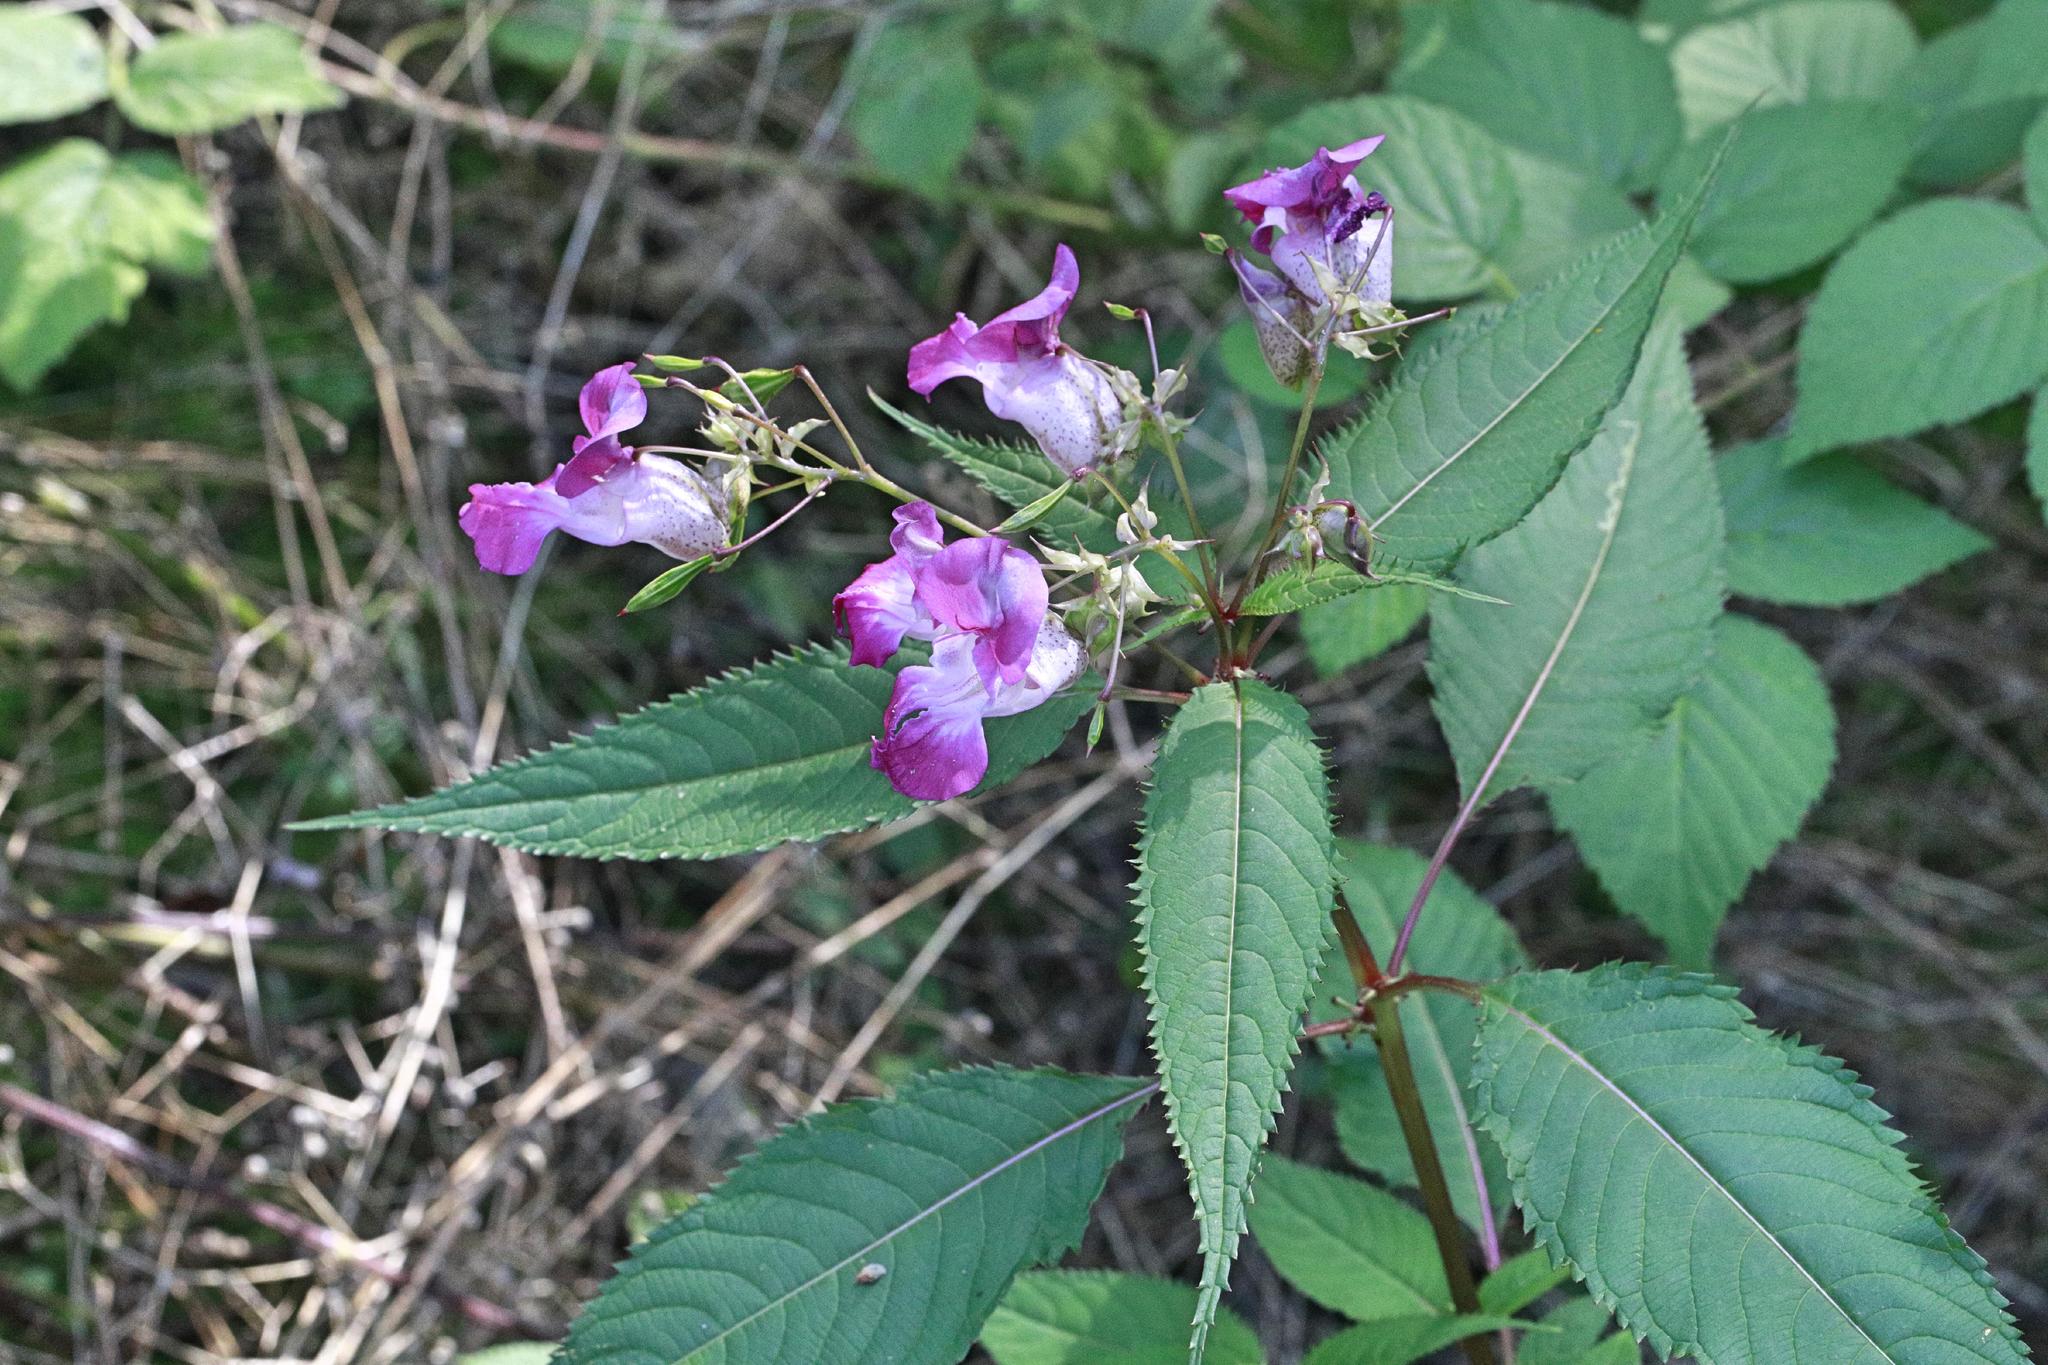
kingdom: Plantae
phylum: Tracheophyta
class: Magnoliopsida
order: Ericales
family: Balsaminaceae
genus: Impatiens
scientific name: Impatiens glandulifera
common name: Himalayan balsam
